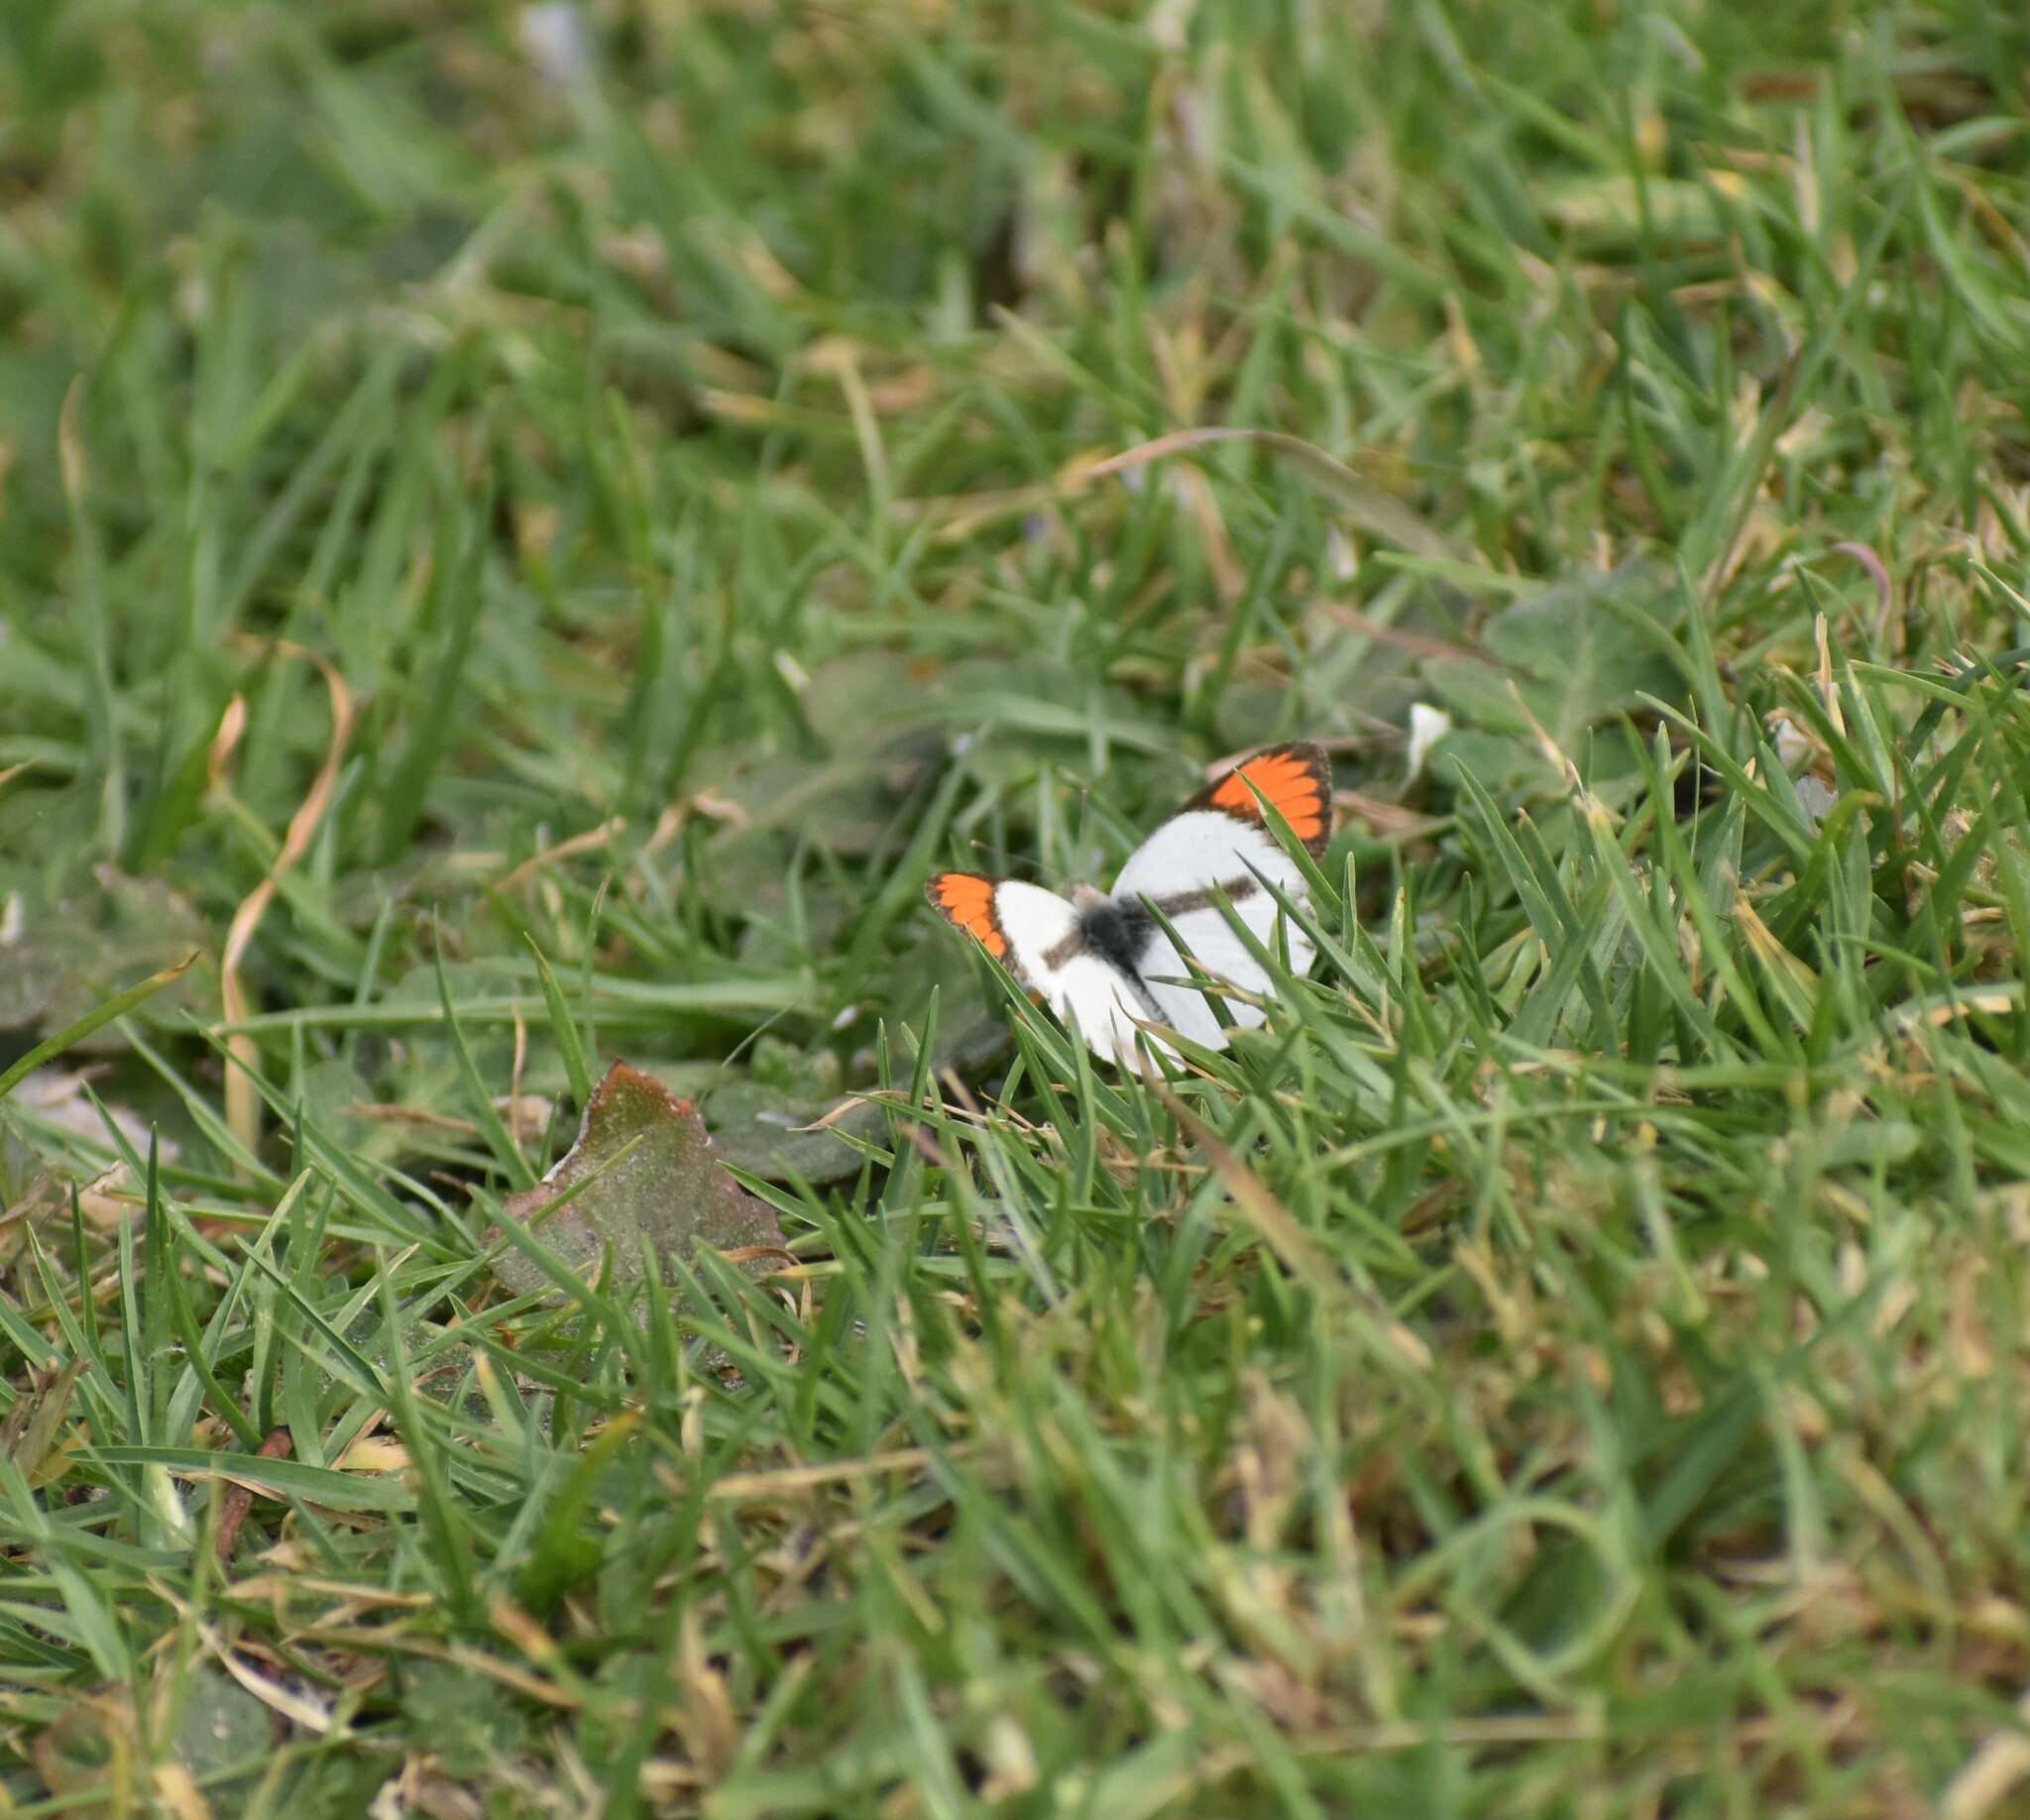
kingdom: Animalia
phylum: Arthropoda
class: Insecta
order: Lepidoptera
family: Pieridae
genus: Colotis
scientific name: Colotis euippe
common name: Round-winged orange tip
